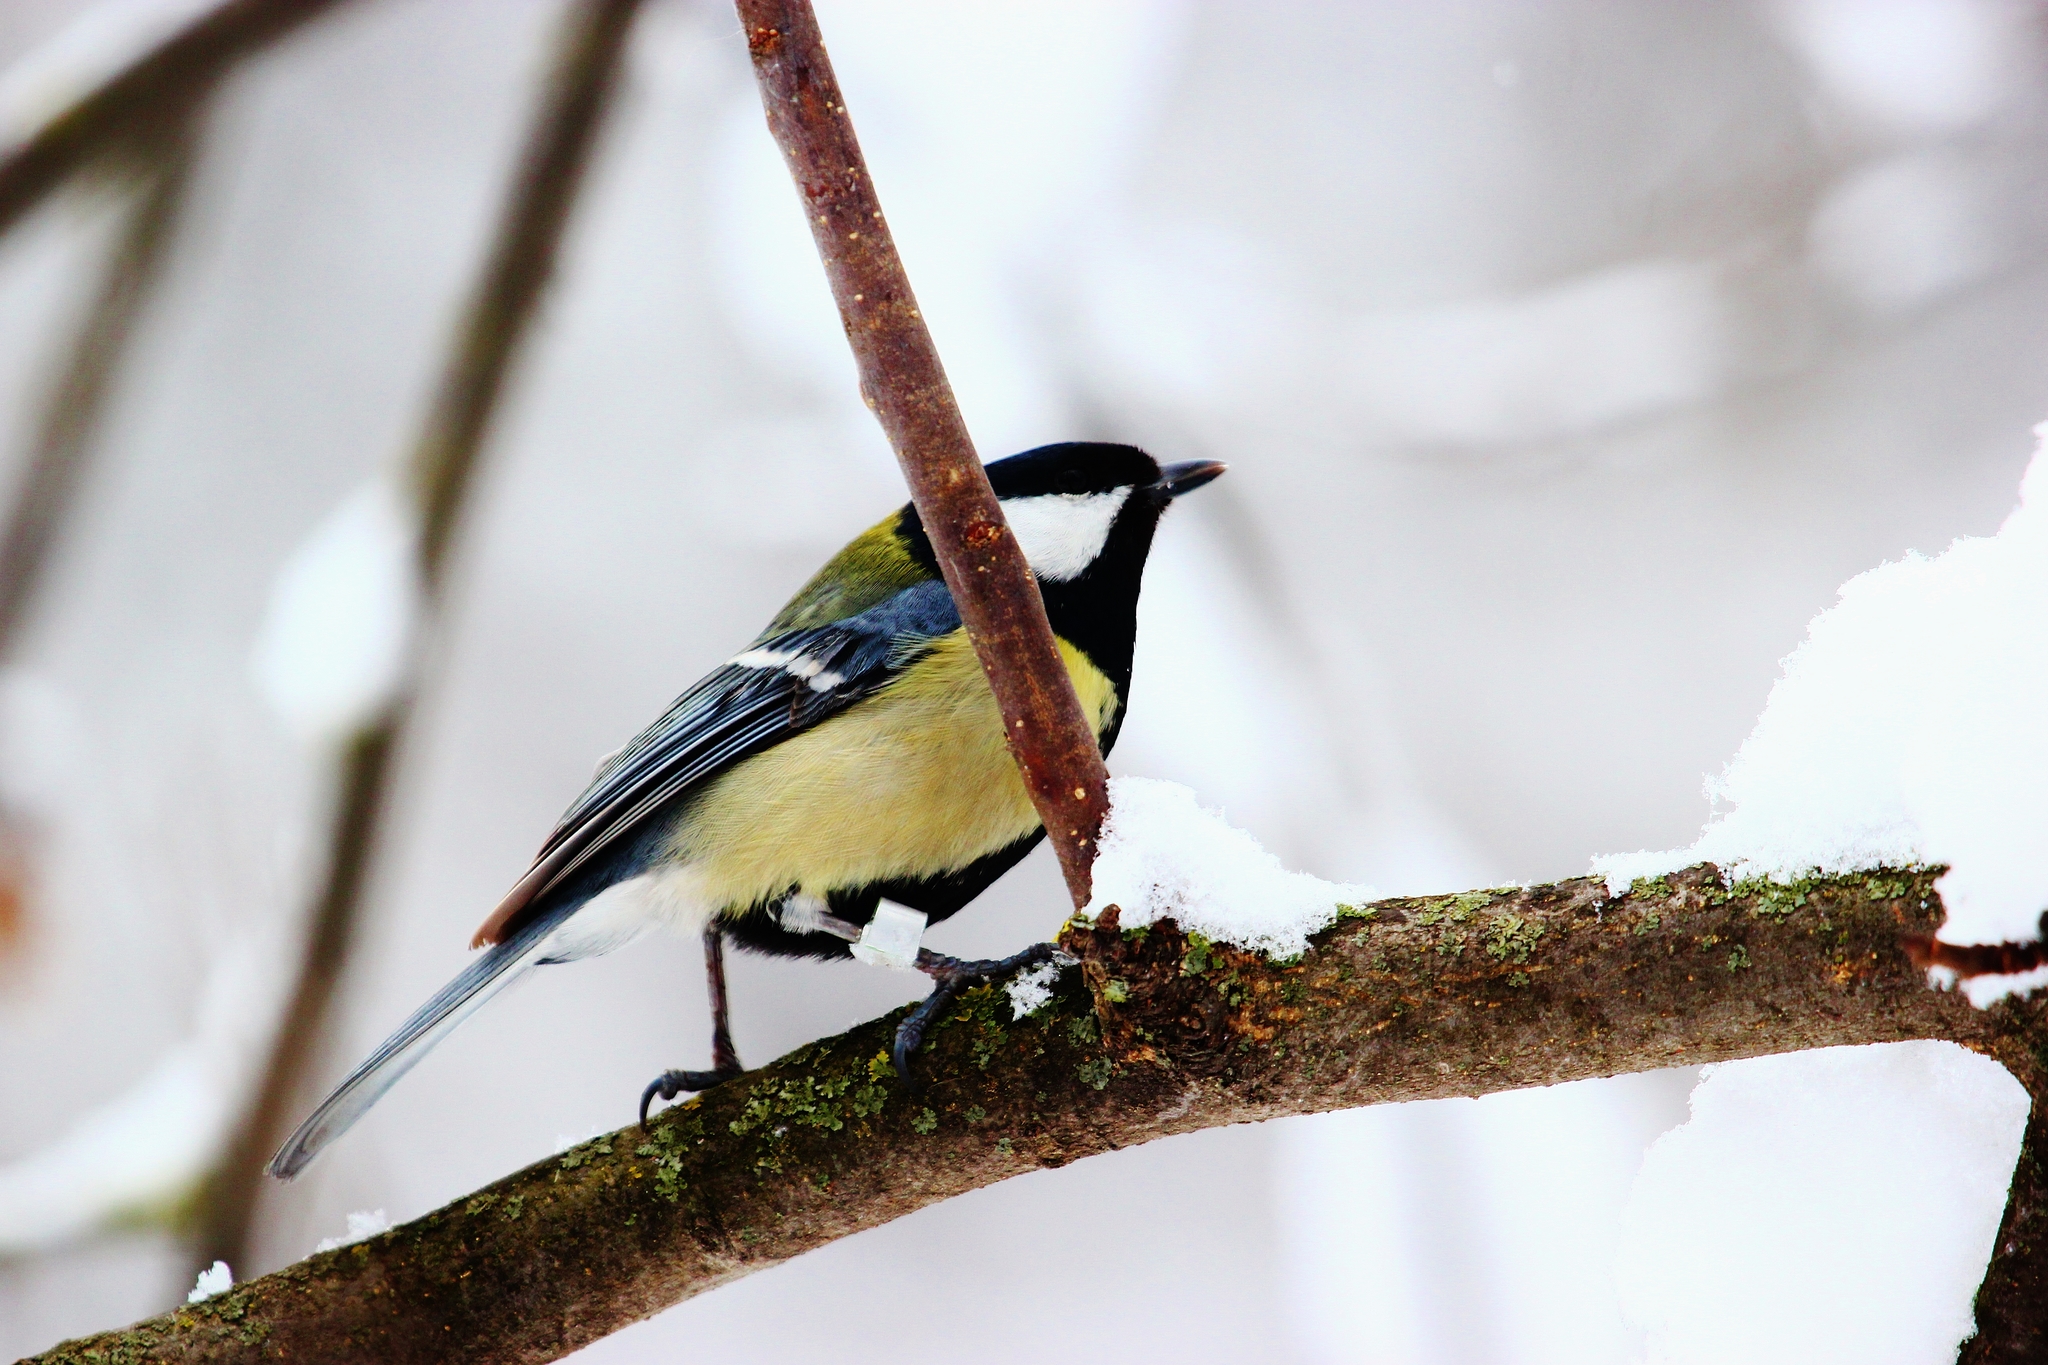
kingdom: Animalia
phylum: Chordata
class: Aves
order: Passeriformes
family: Paridae
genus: Parus
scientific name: Parus major
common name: Great tit
